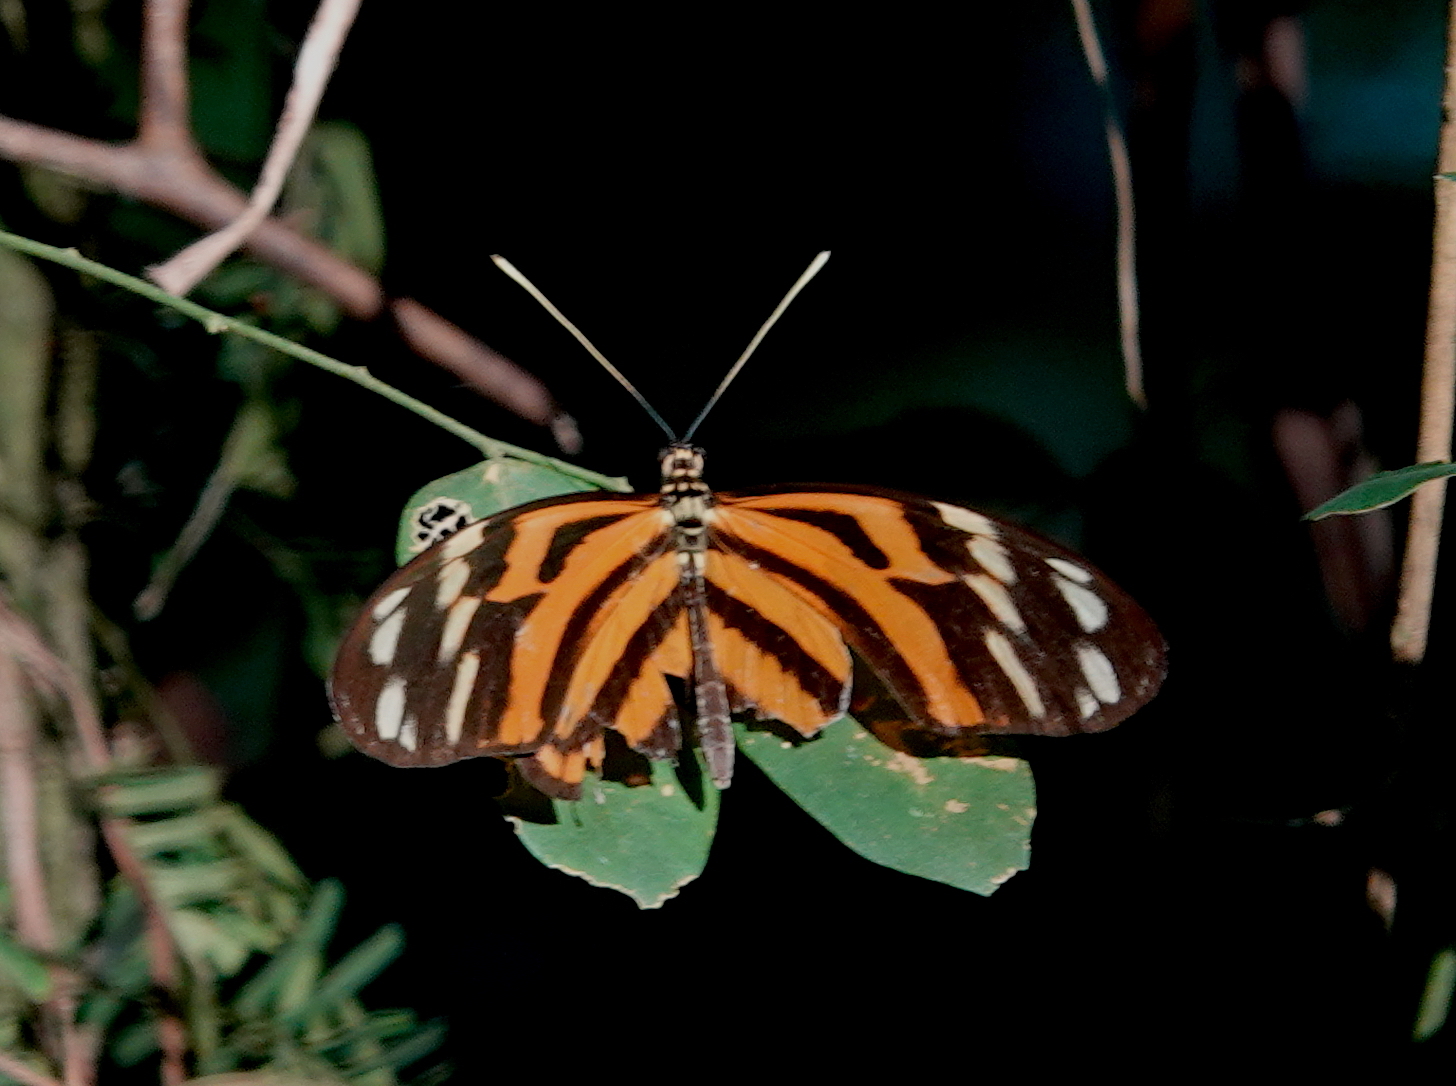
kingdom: Animalia
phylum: Arthropoda
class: Insecta
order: Lepidoptera
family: Nymphalidae
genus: Heliconius
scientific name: Heliconius ismenius
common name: Ismenius tiger
